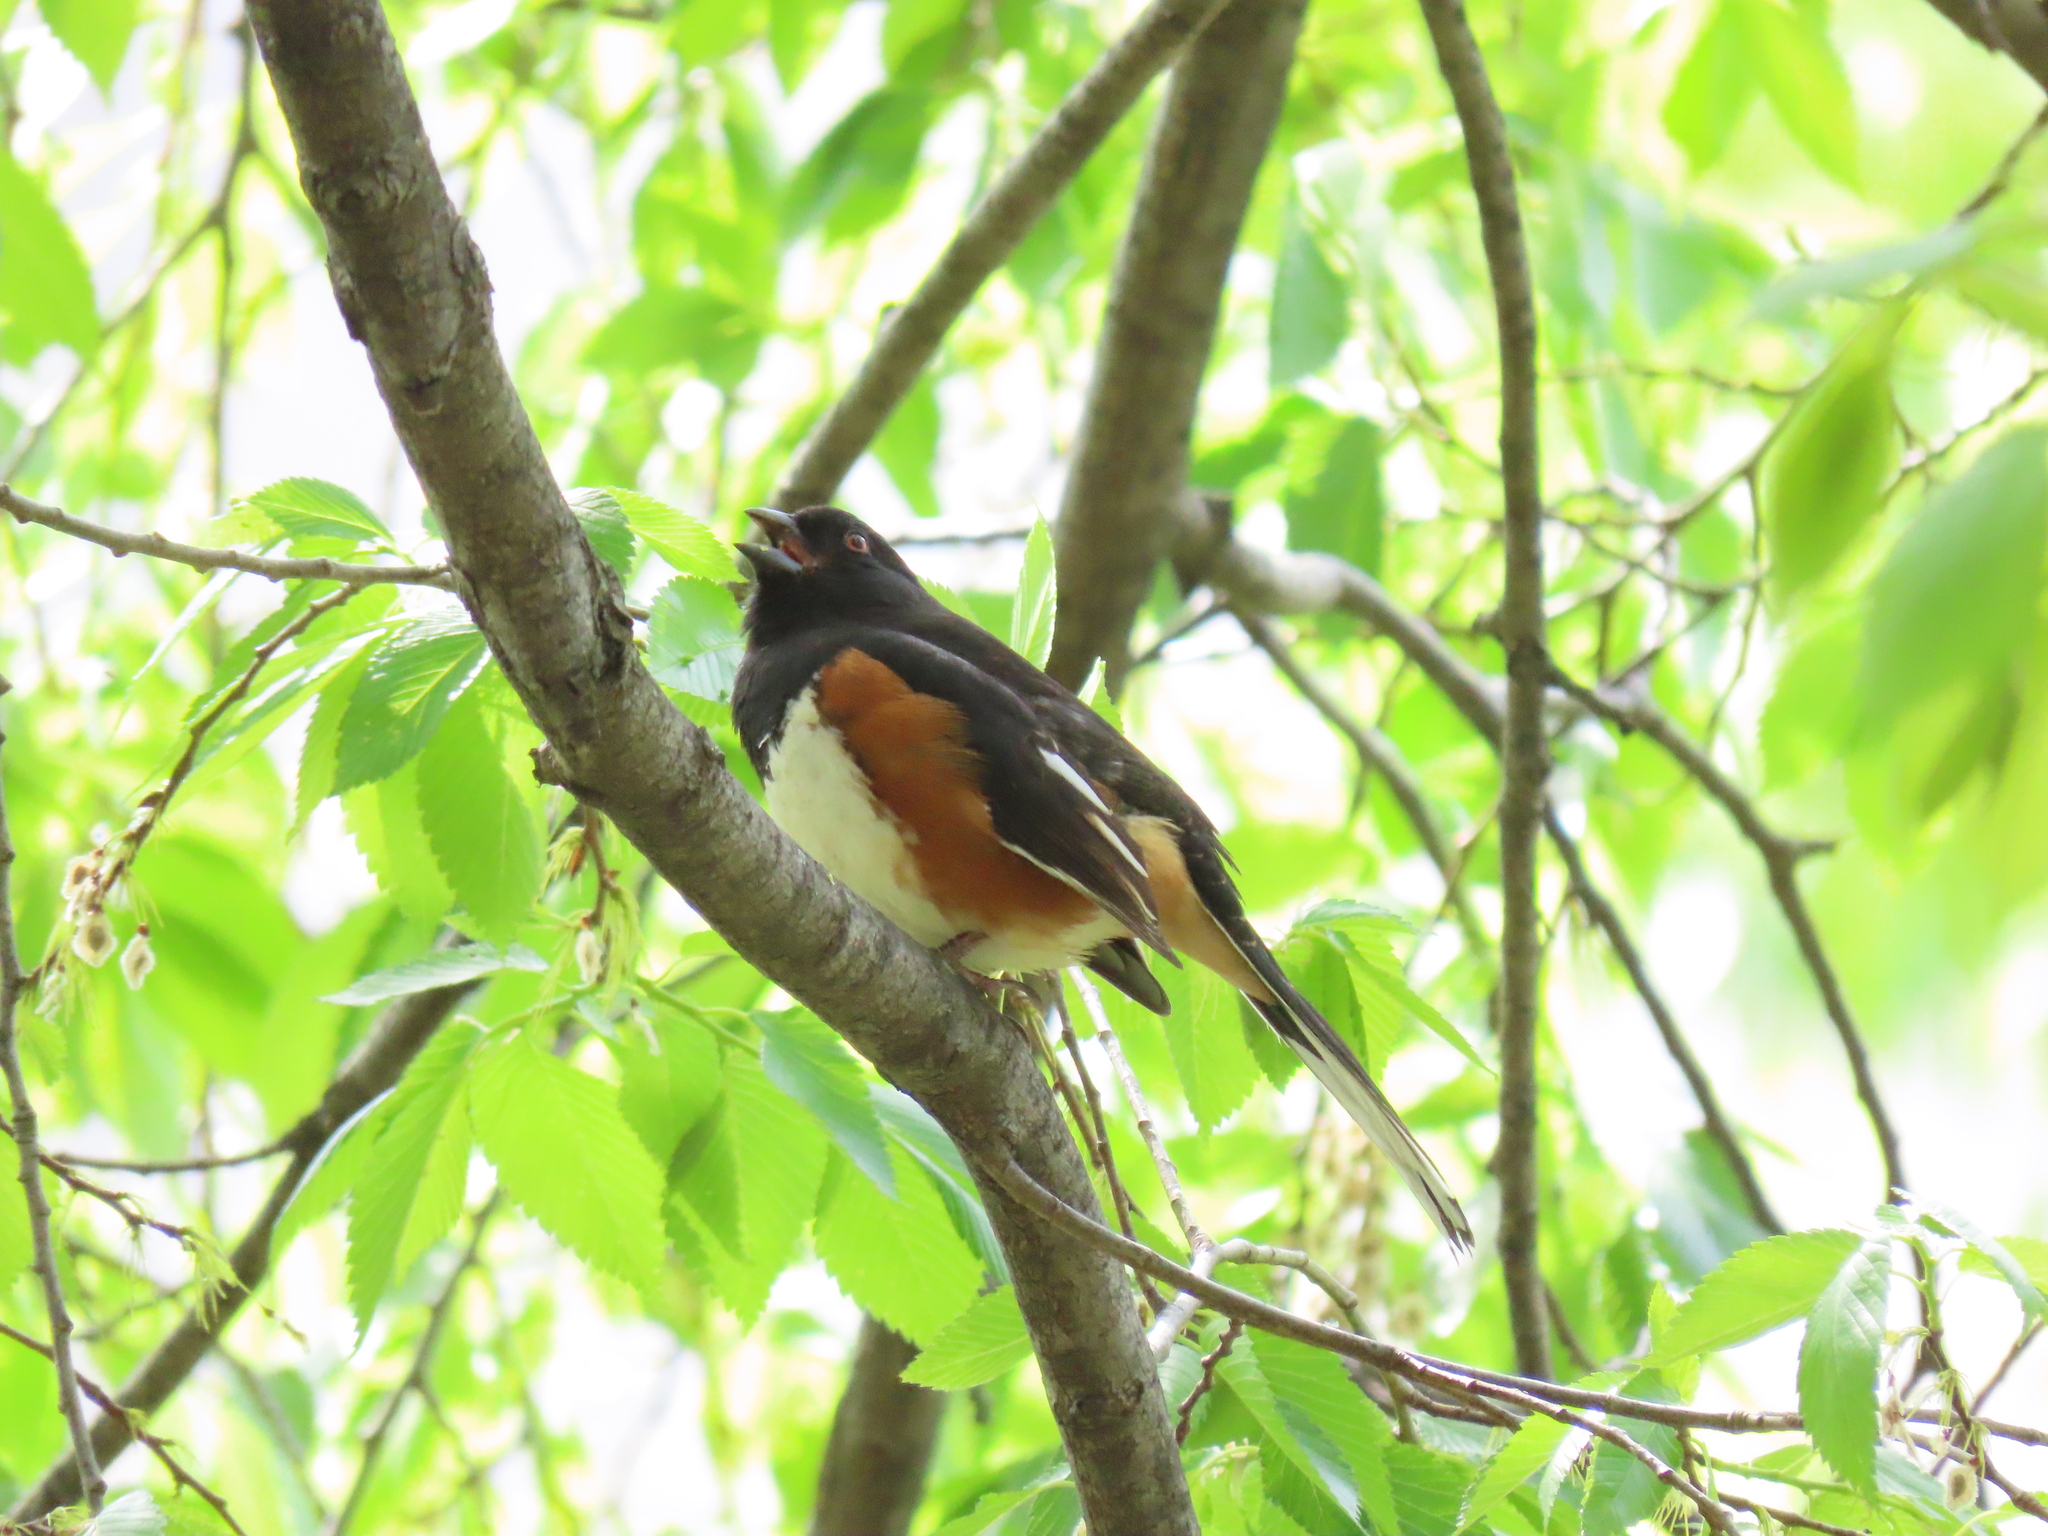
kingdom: Animalia
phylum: Chordata
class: Aves
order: Passeriformes
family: Passerellidae
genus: Pipilo
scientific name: Pipilo erythrophthalmus
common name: Eastern towhee
